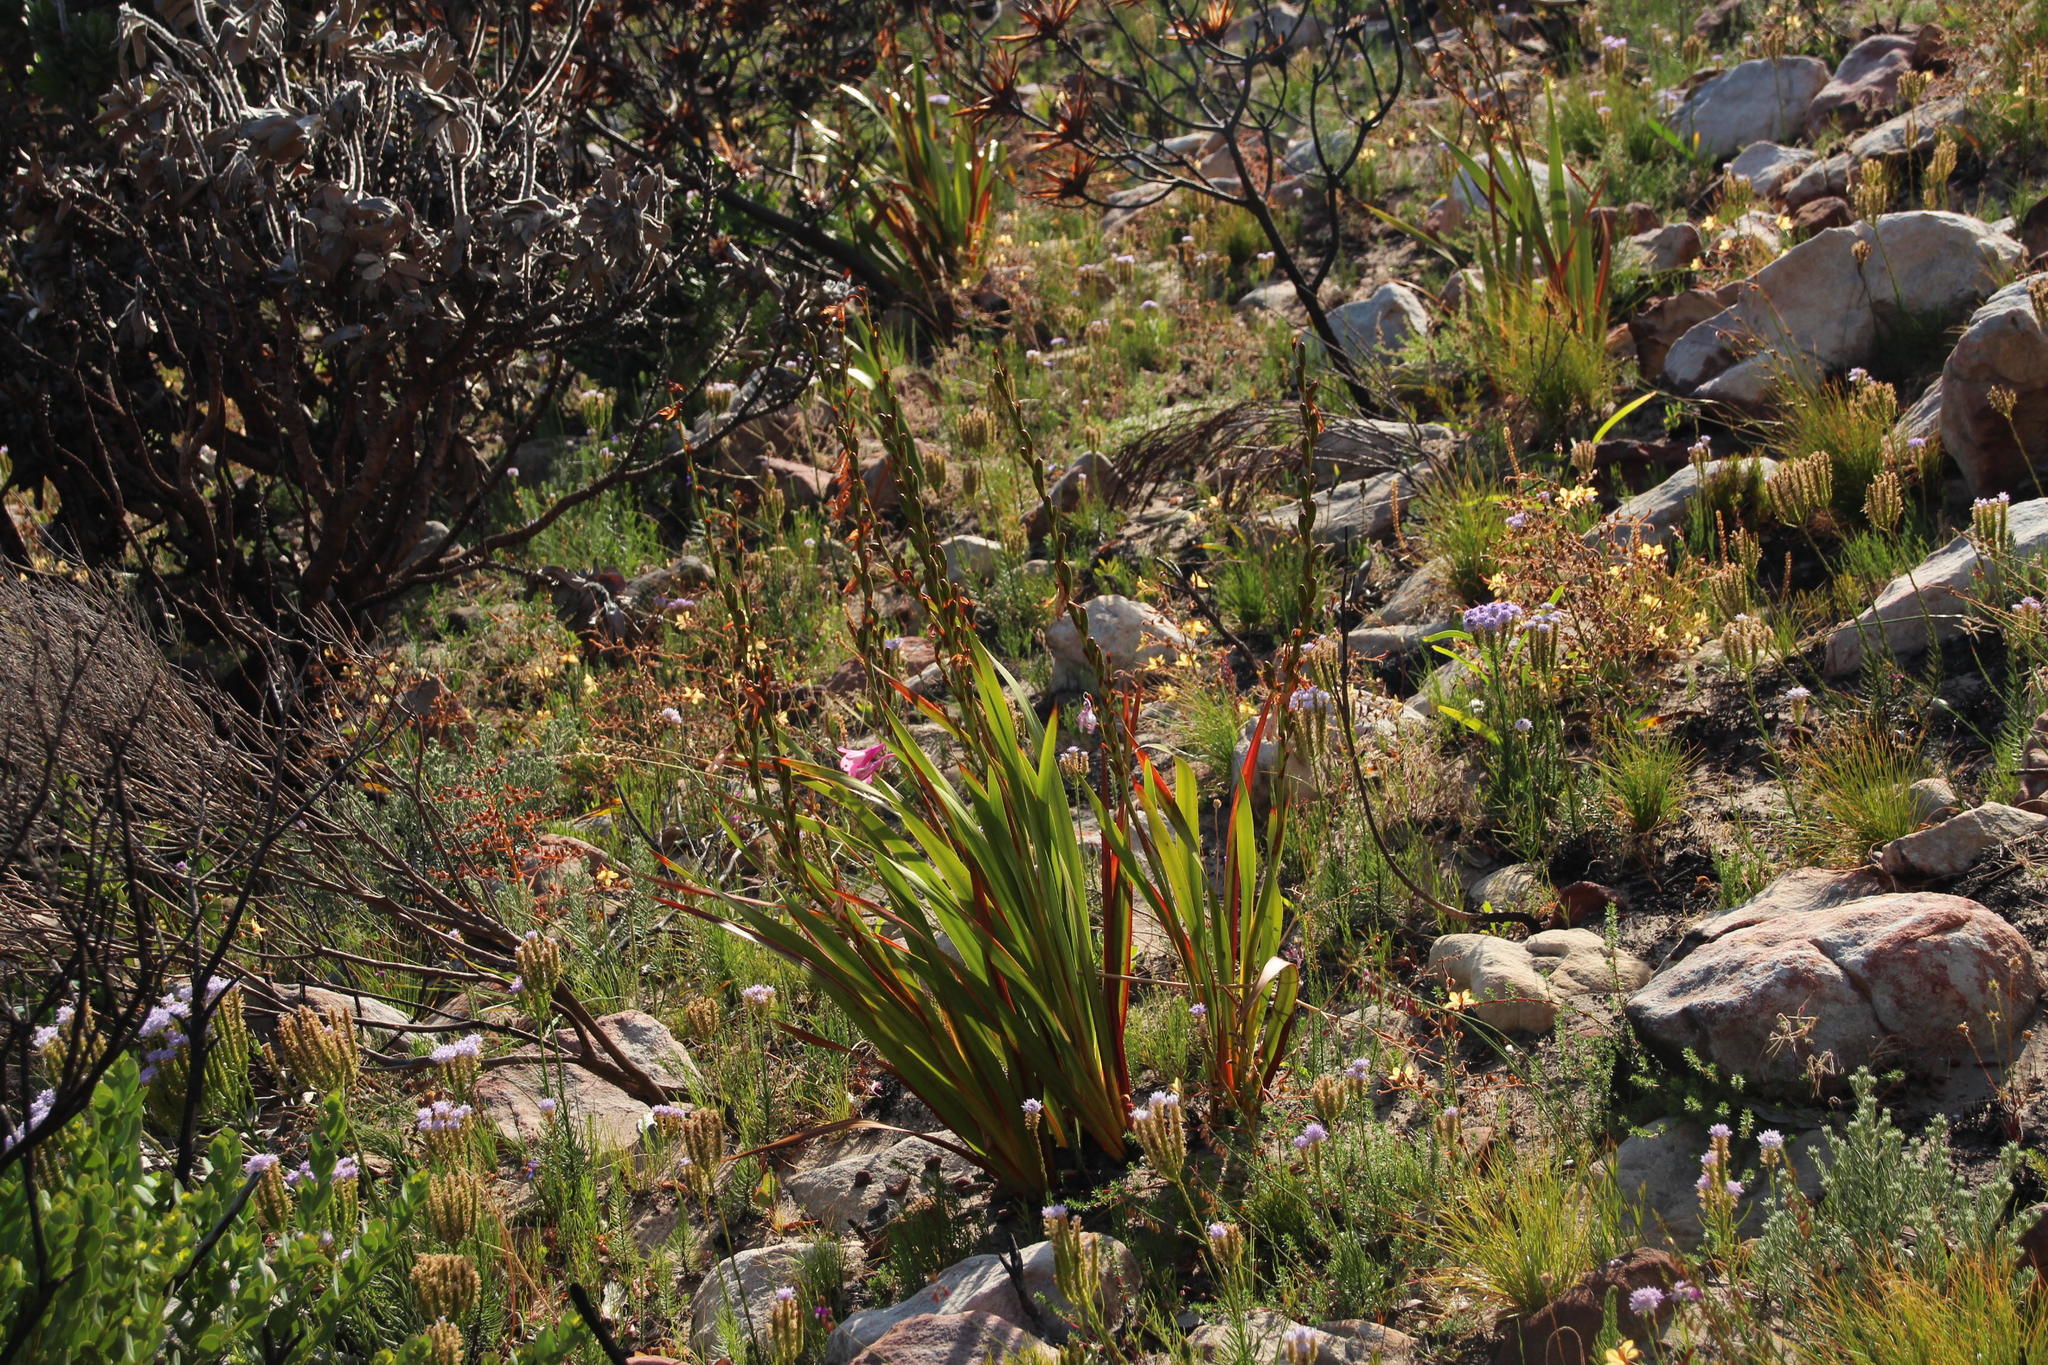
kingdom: Plantae
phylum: Tracheophyta
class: Liliopsida
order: Asparagales
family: Iridaceae
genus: Watsonia
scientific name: Watsonia borbonica
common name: Bugle-lily
